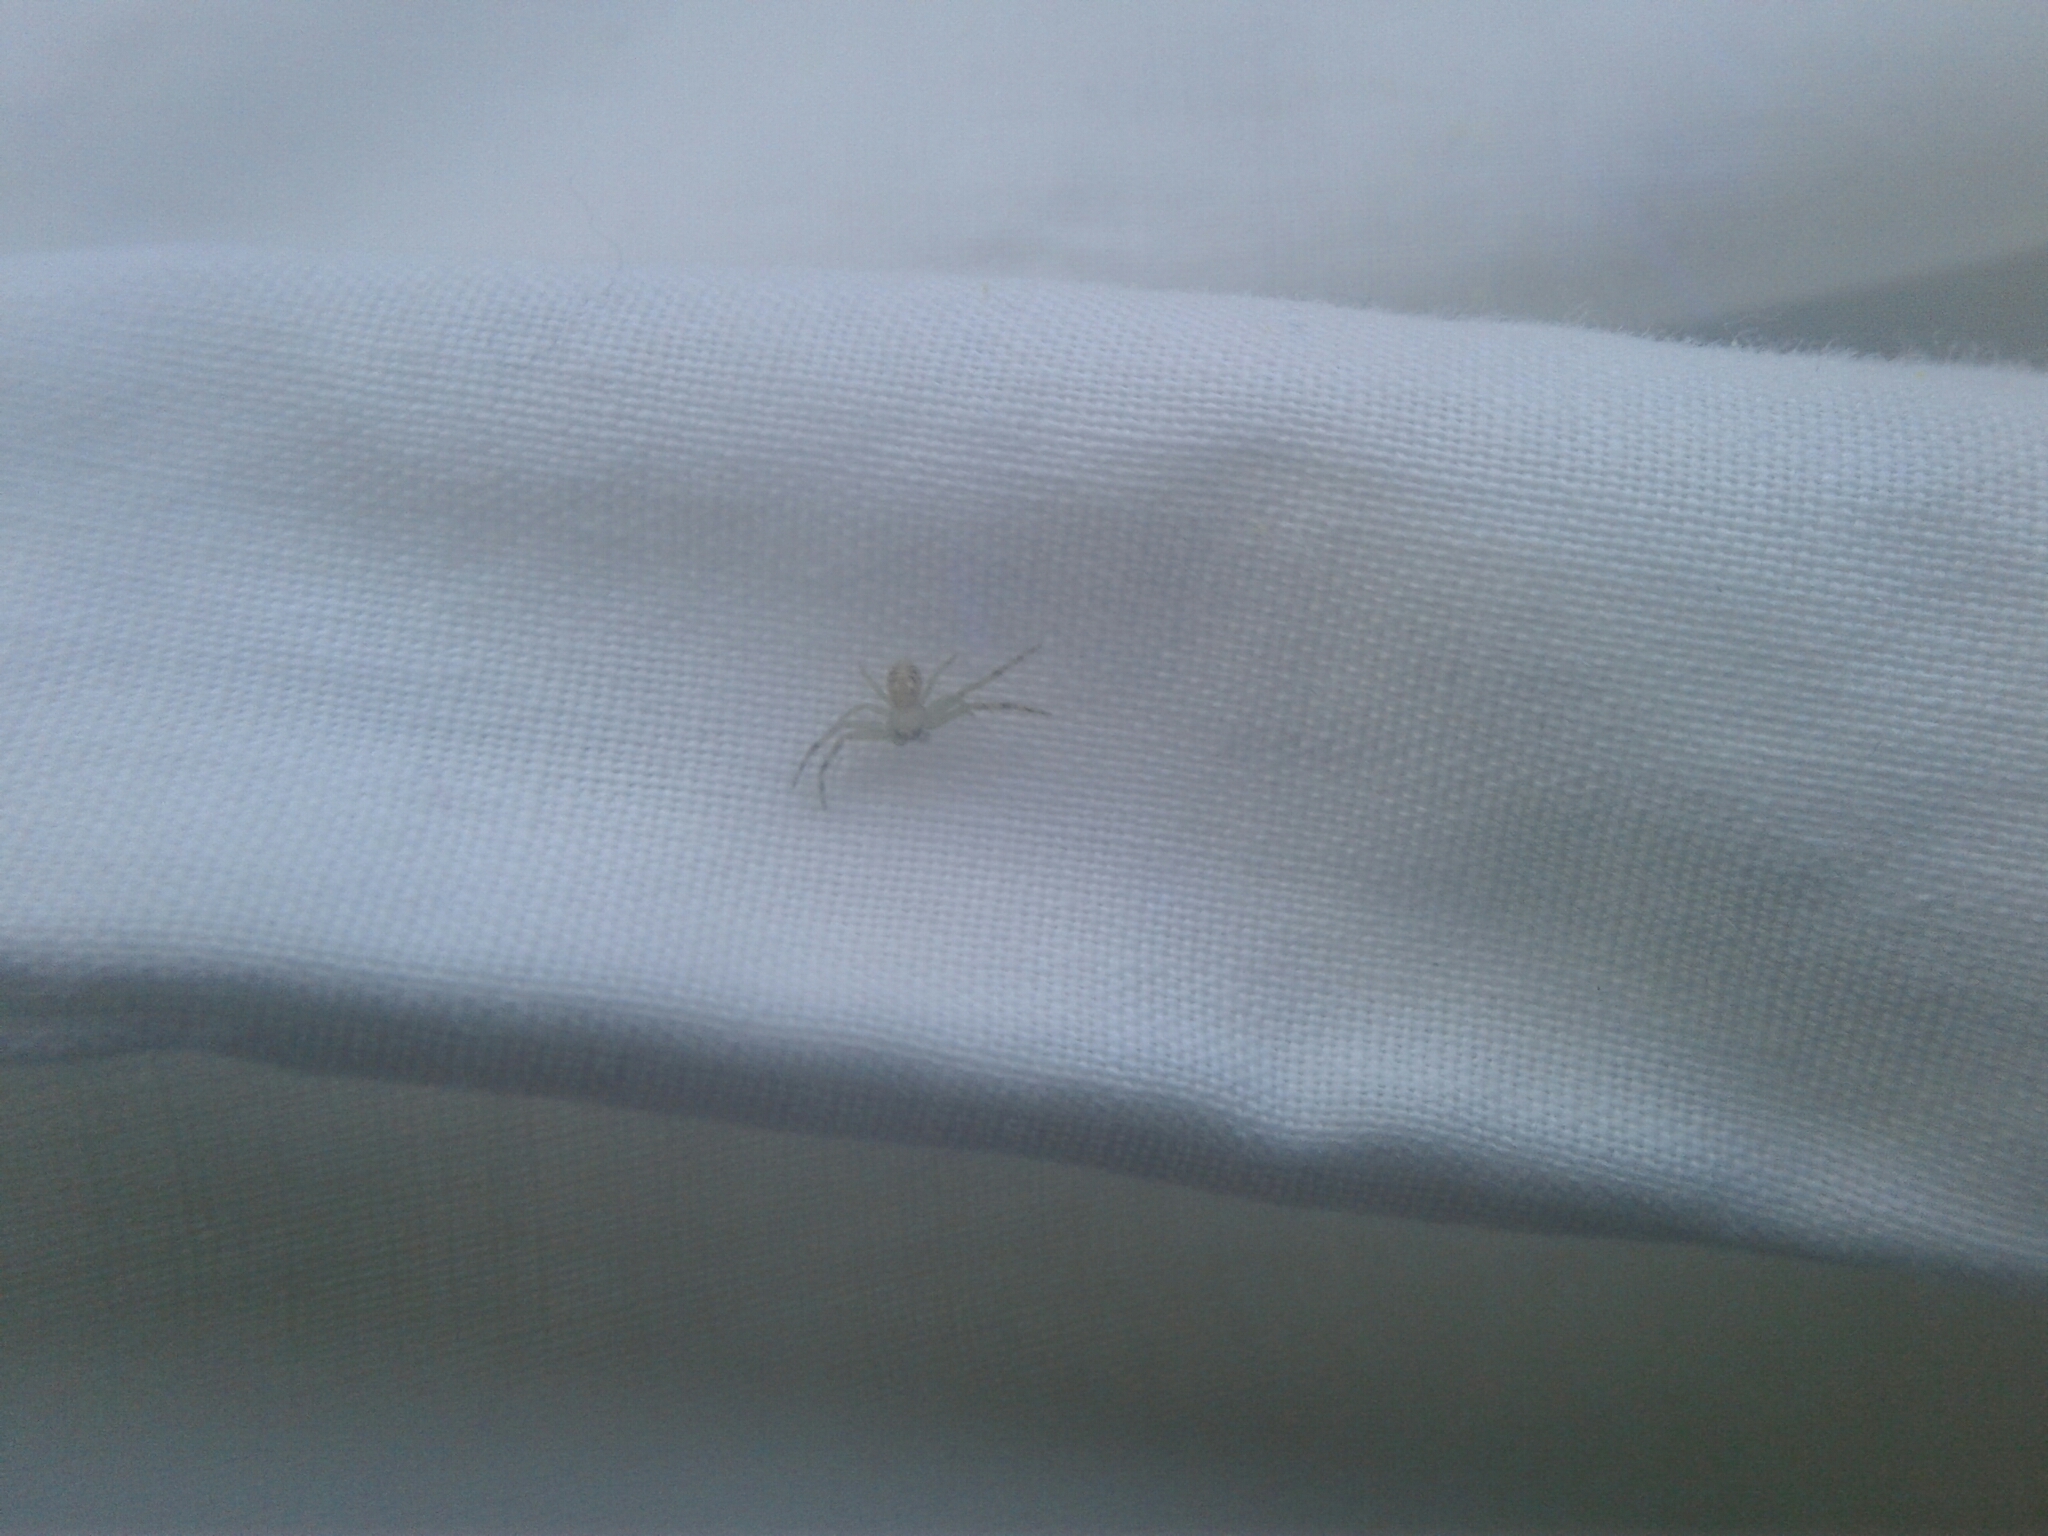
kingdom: Animalia
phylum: Arthropoda
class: Arachnida
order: Araneae
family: Thomisidae
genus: Diaea
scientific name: Diaea
